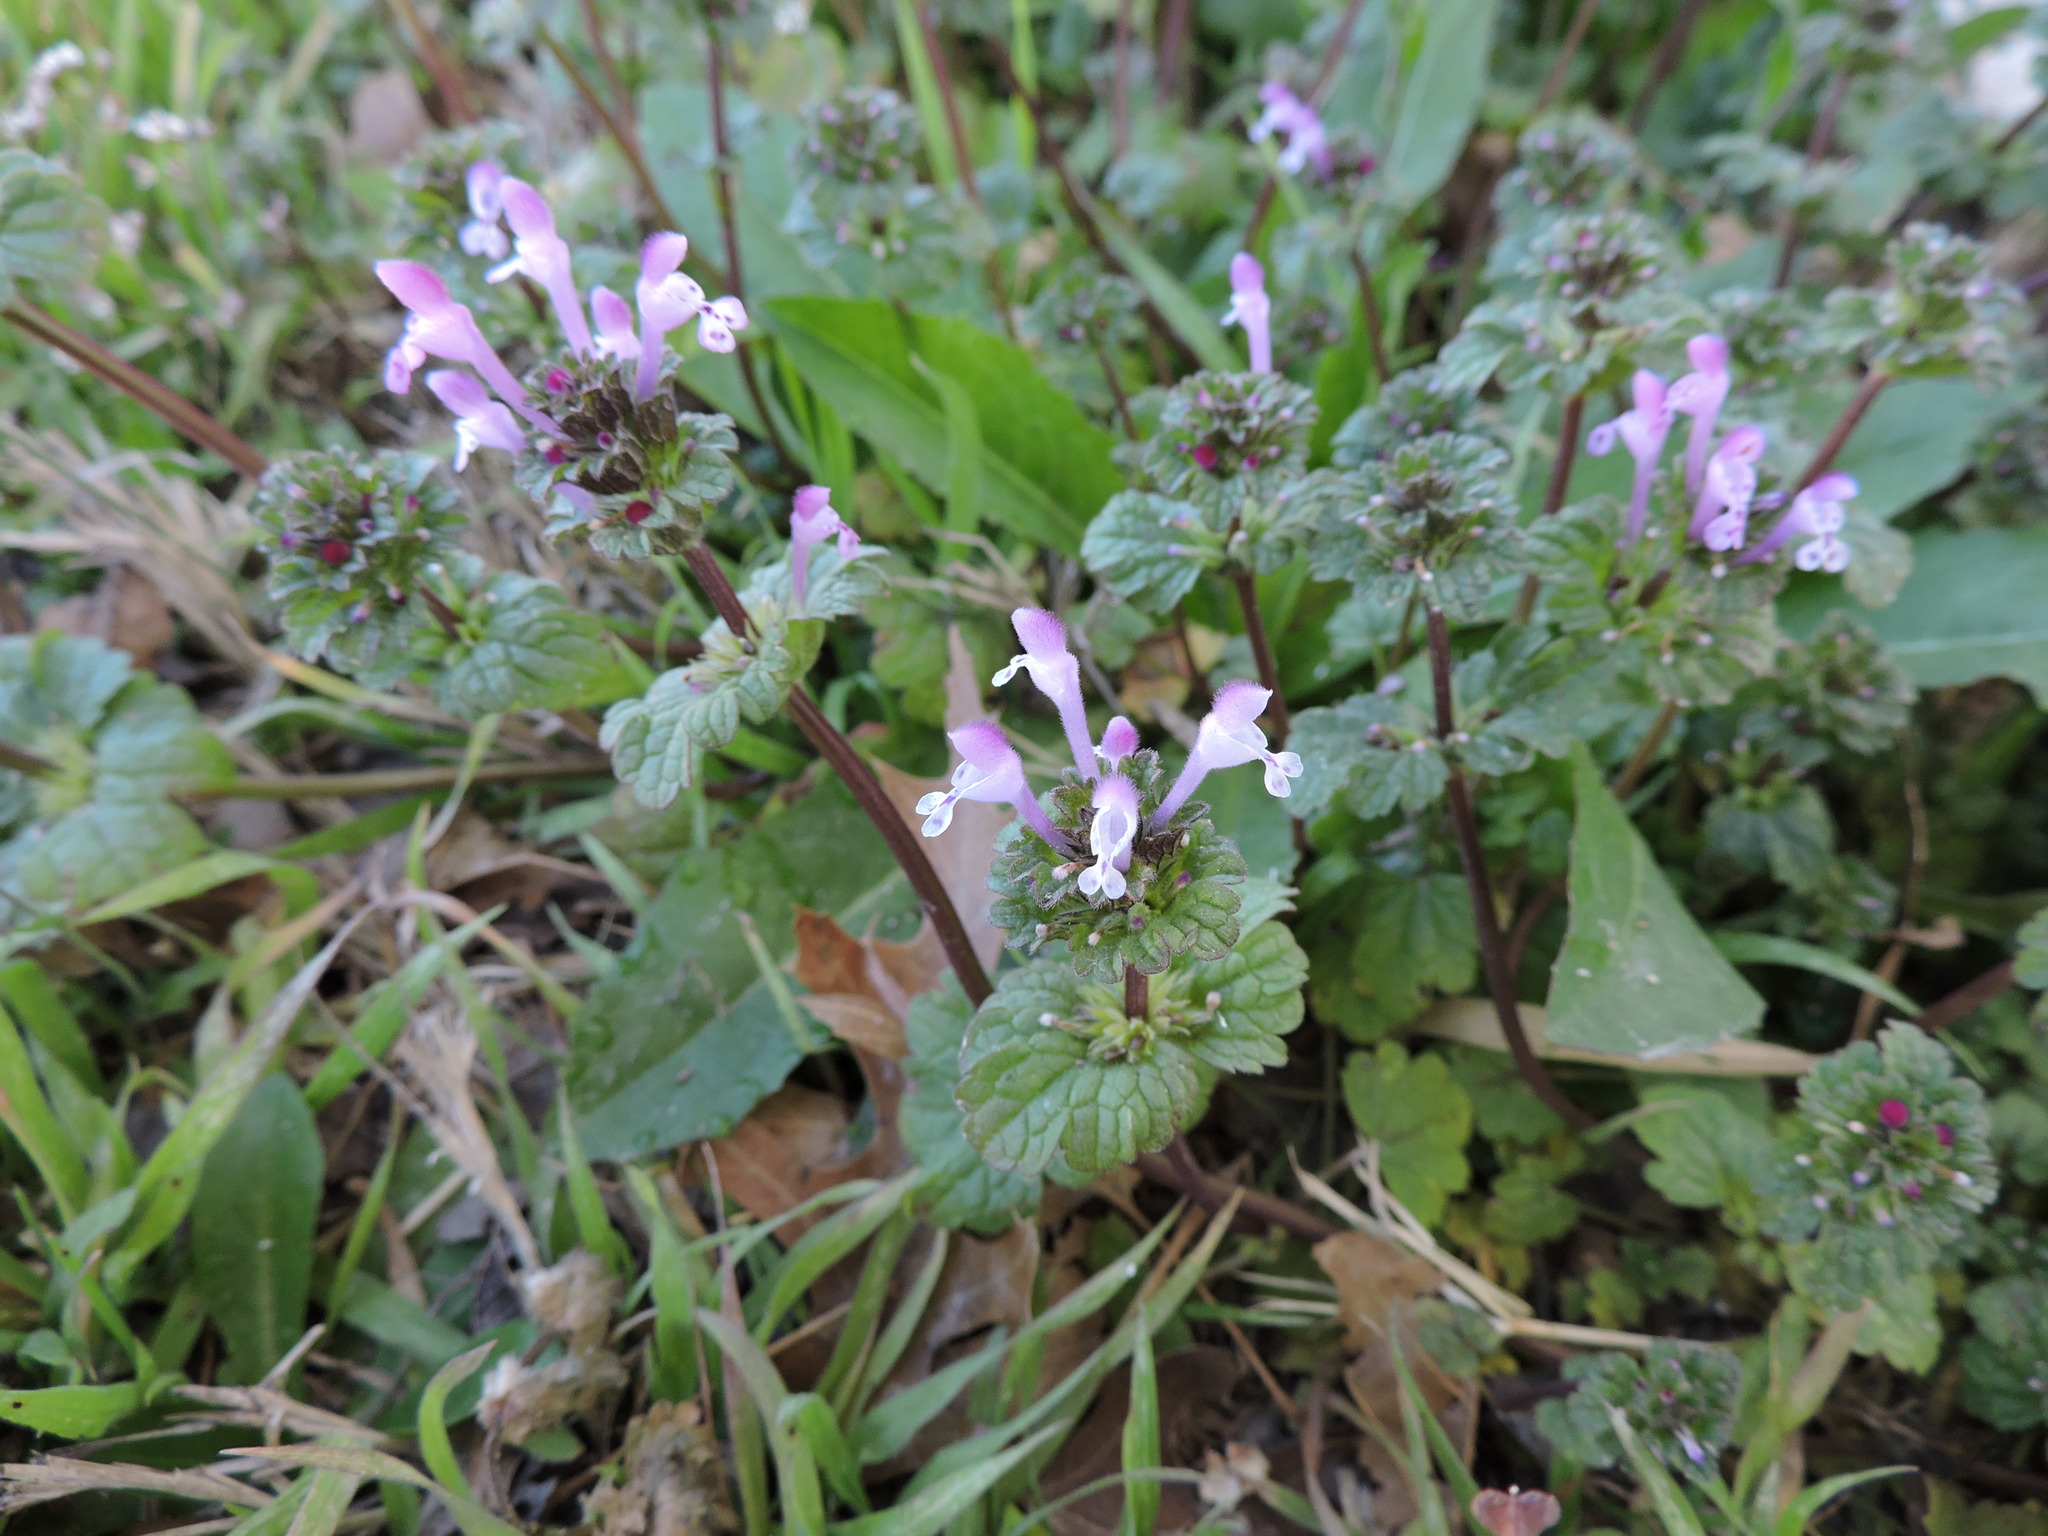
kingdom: Plantae
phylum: Tracheophyta
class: Magnoliopsida
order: Lamiales
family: Lamiaceae
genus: Lamium
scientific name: Lamium amplexicaule
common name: Henbit dead-nettle
